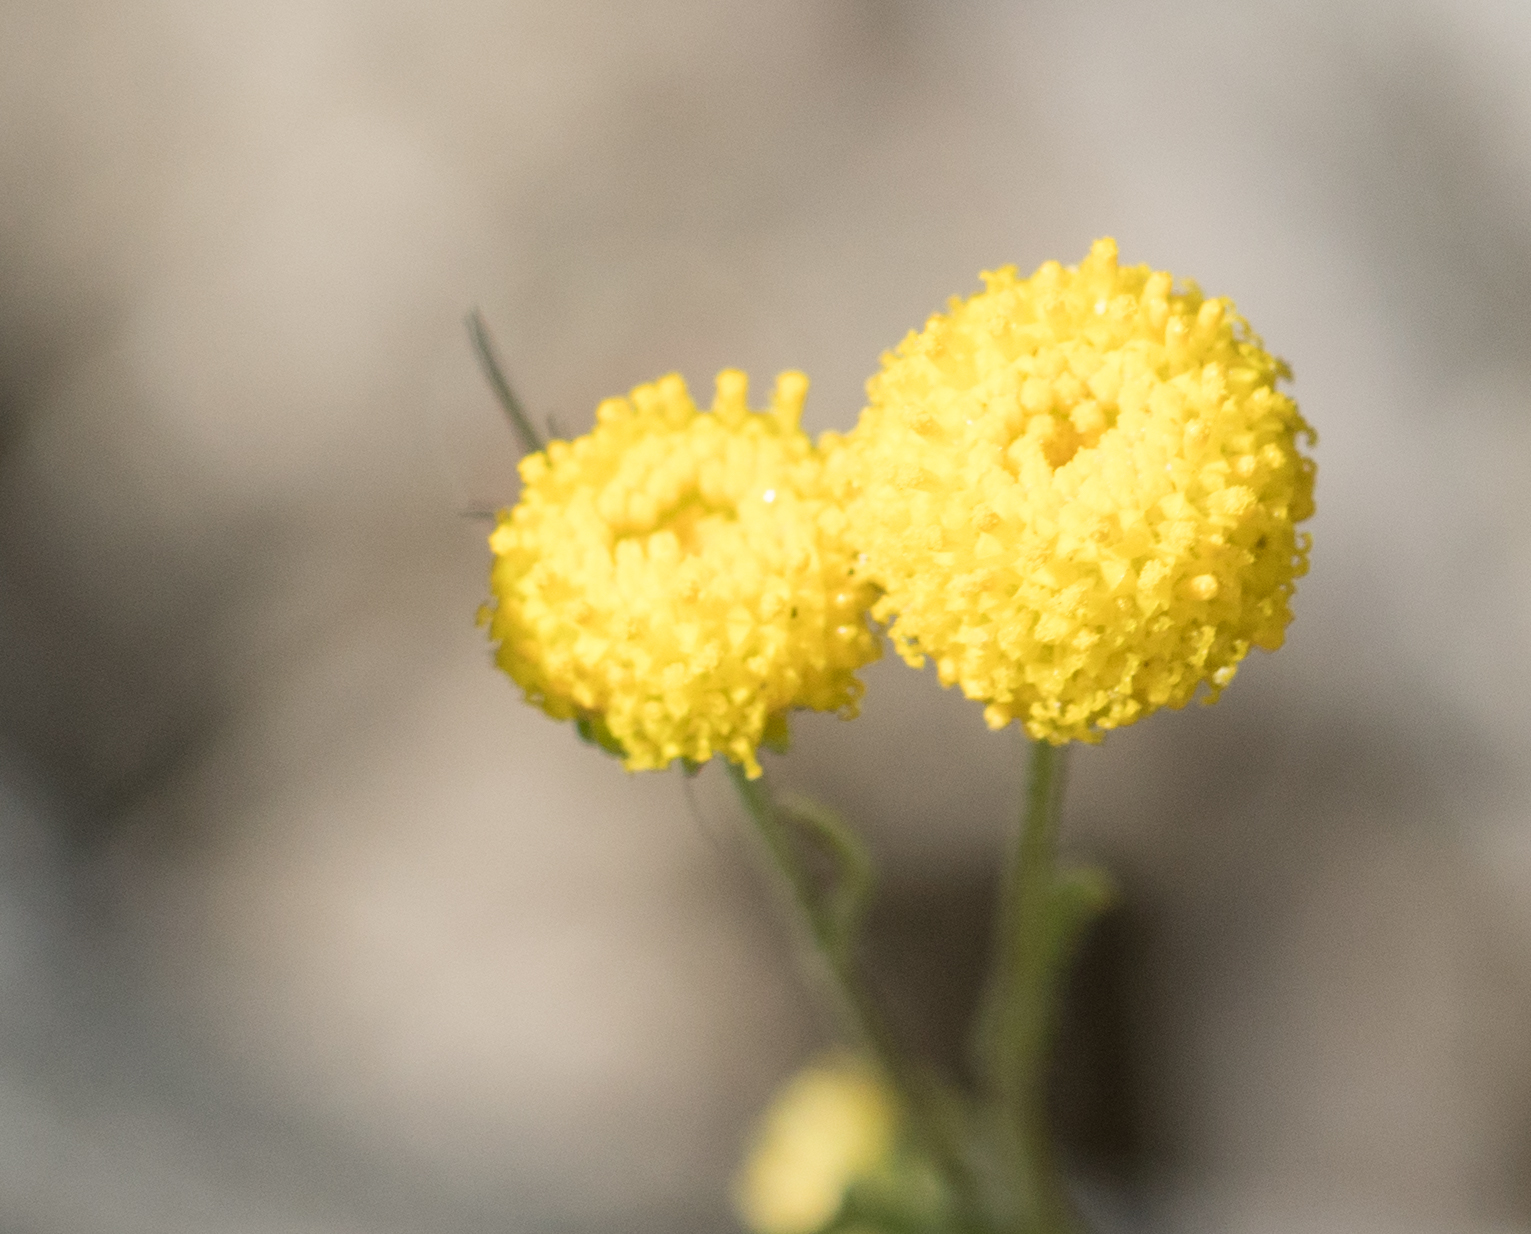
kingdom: Plantae
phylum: Tracheophyta
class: Magnoliopsida
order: Asterales
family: Asteraceae
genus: Oncosiphon
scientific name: Oncosiphon pilulifer
